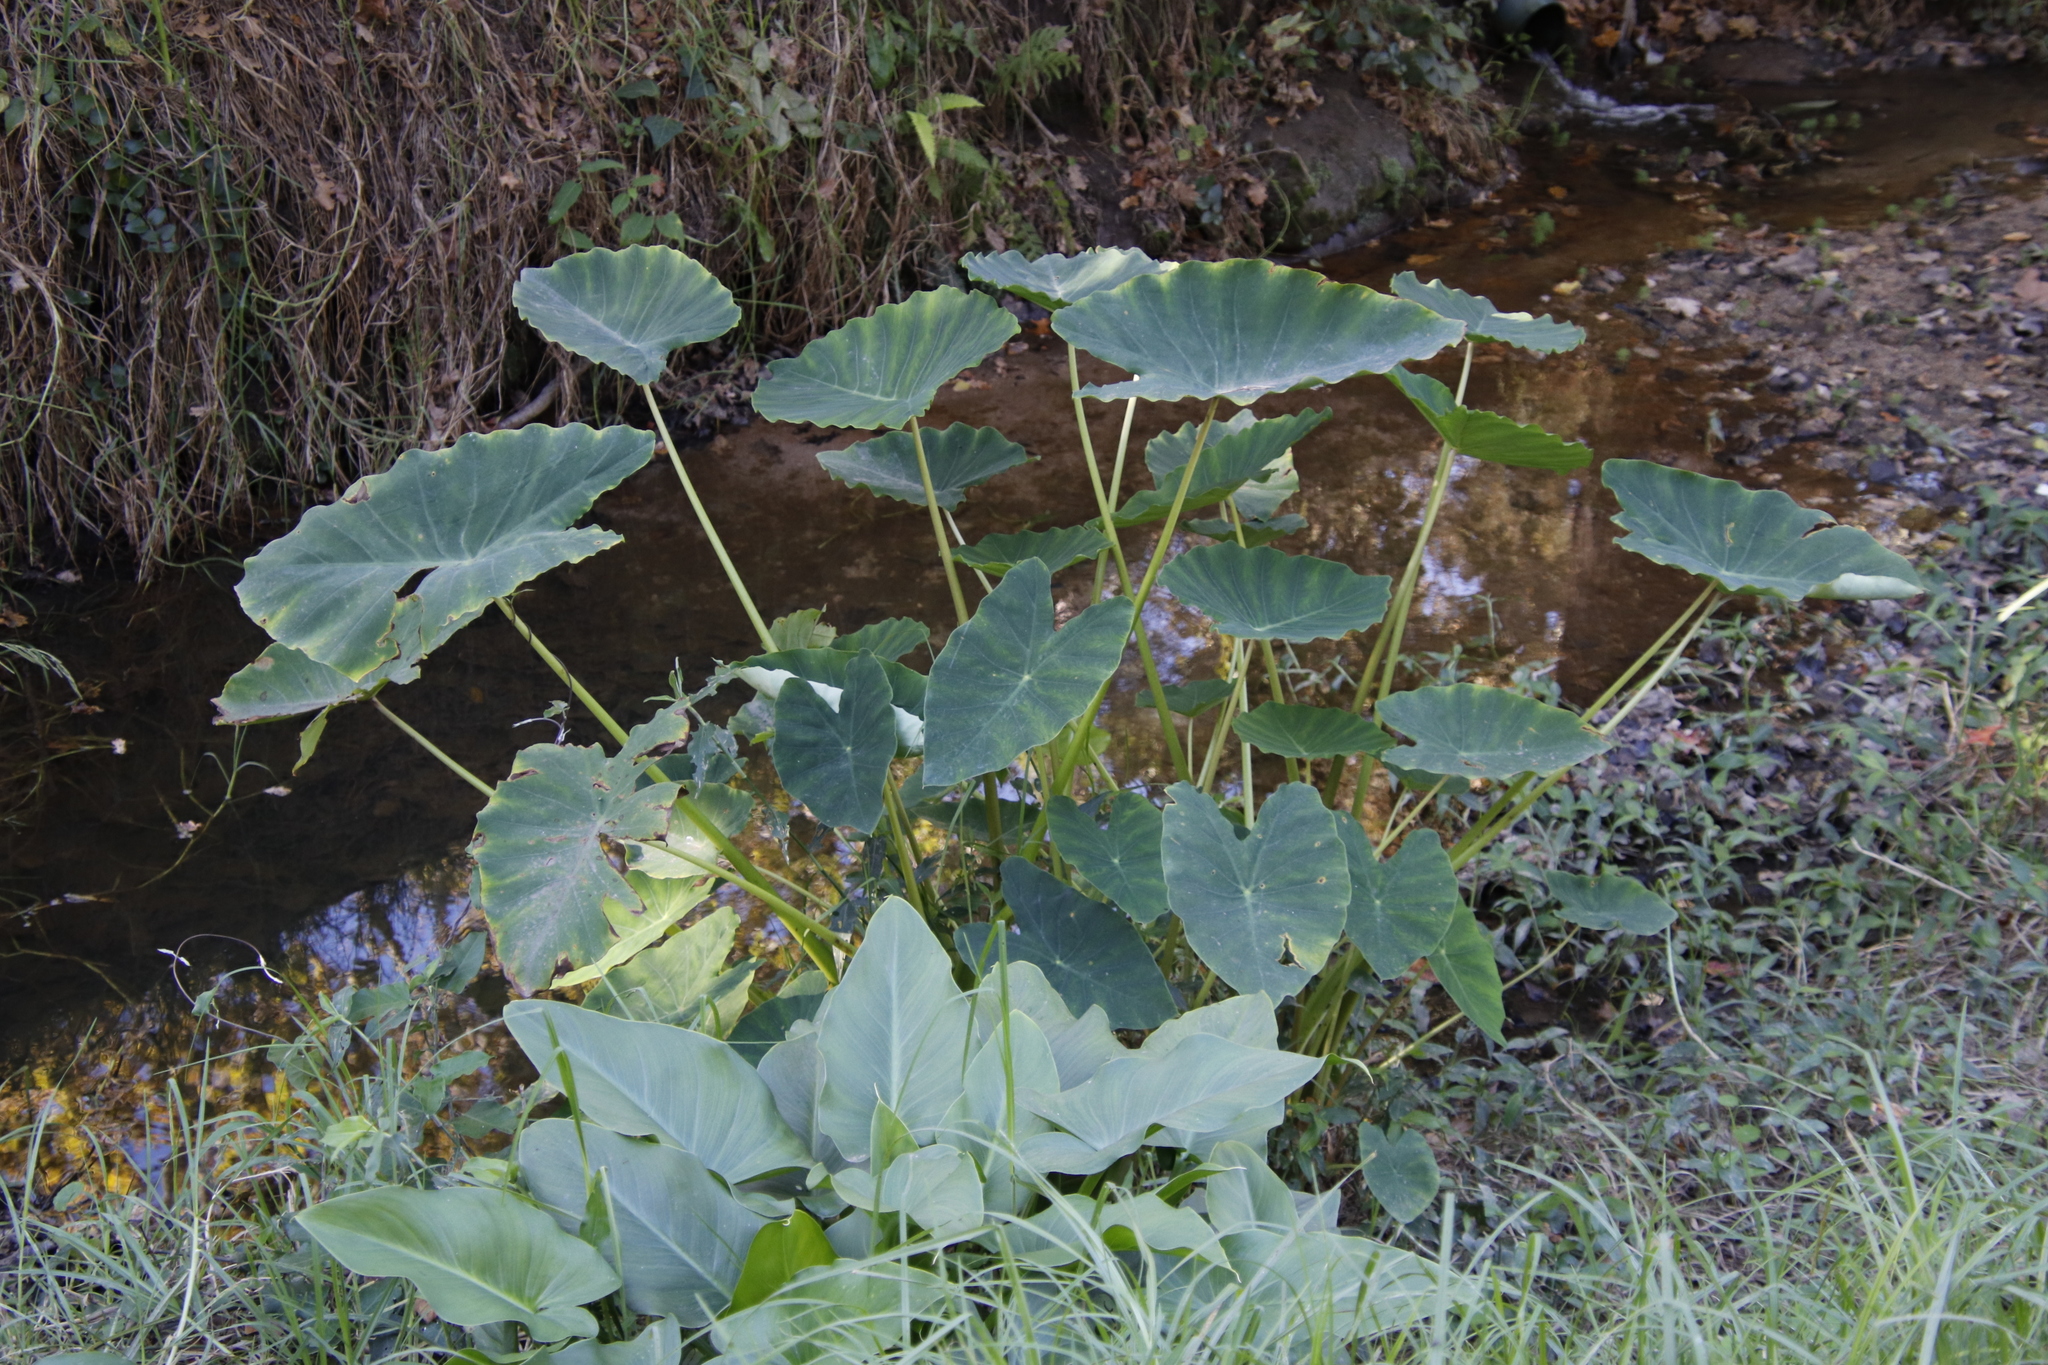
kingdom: Plantae
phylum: Tracheophyta
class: Liliopsida
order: Alismatales
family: Araceae
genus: Colocasia
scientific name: Colocasia esculenta
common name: Taro
